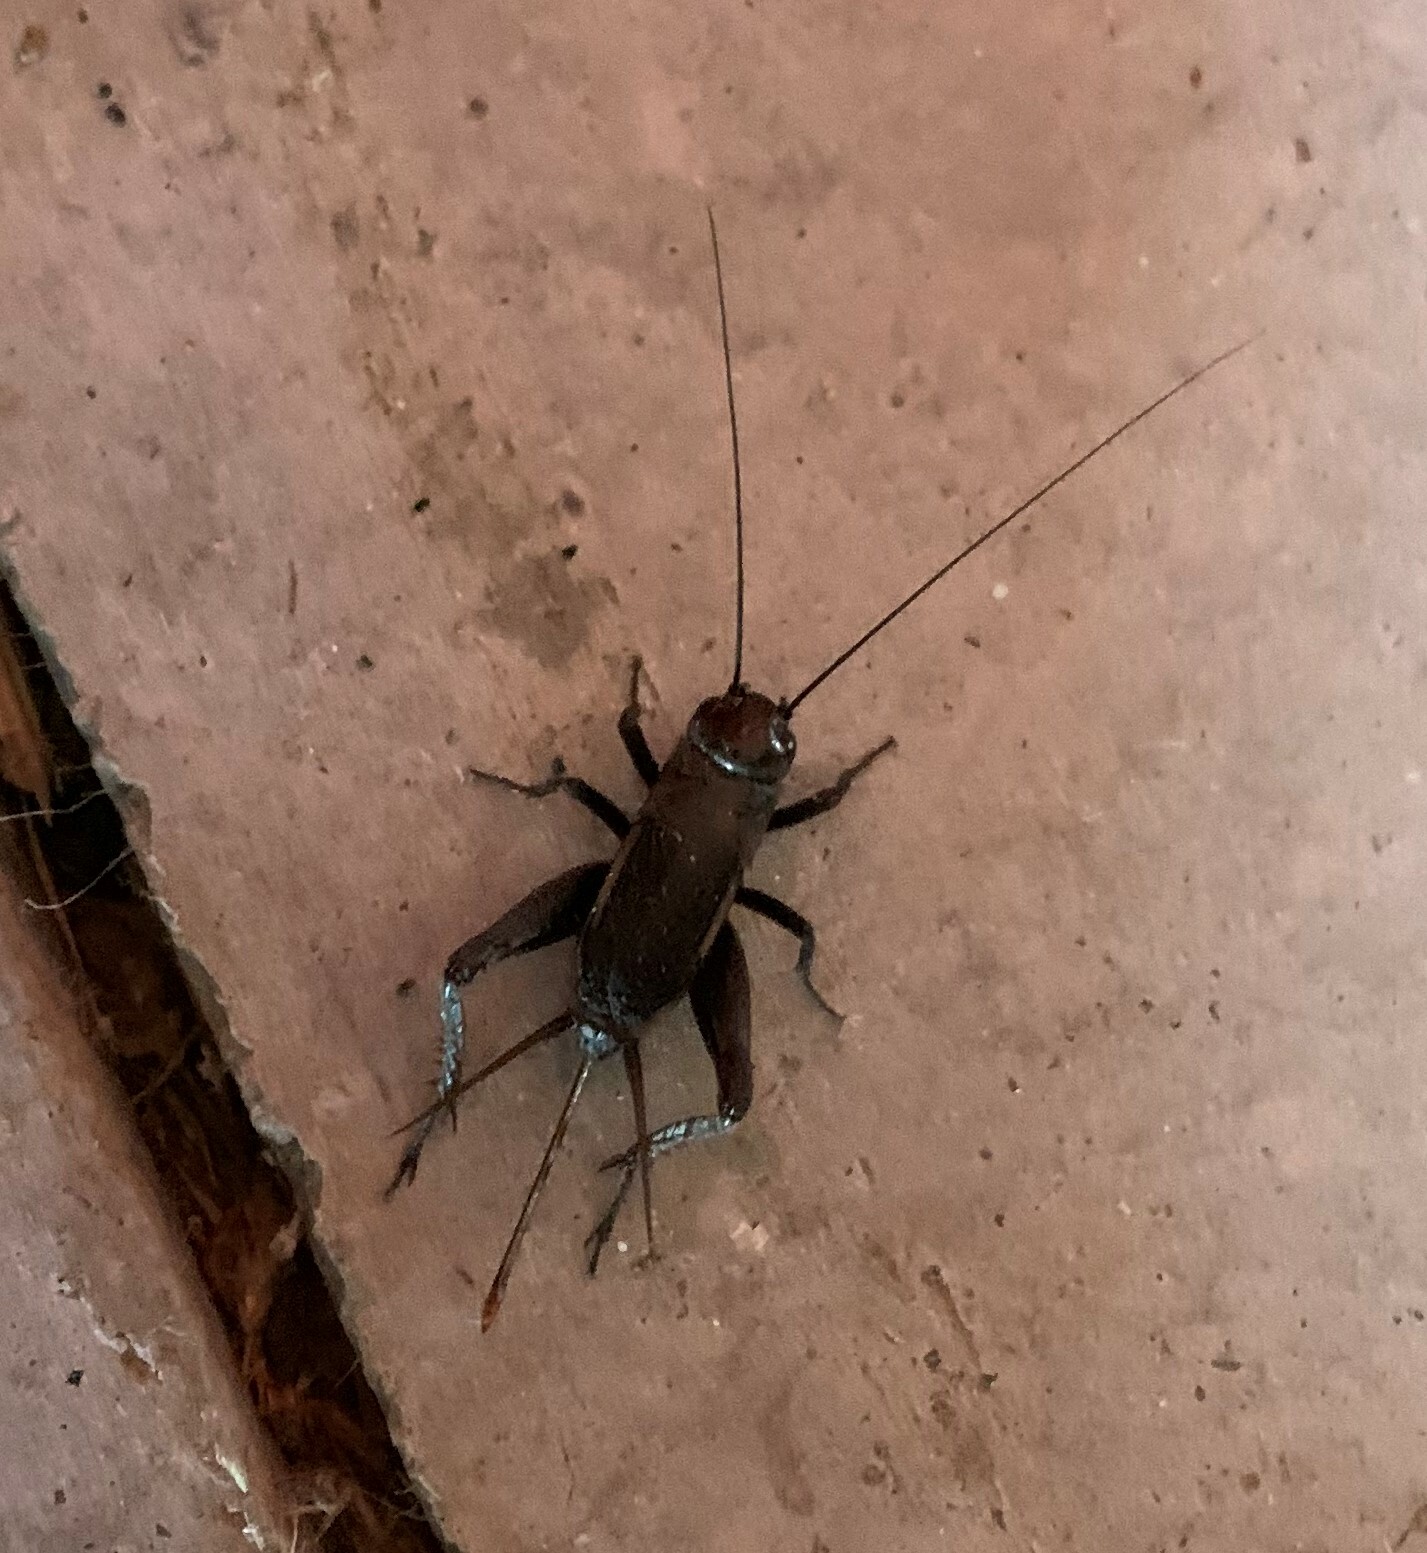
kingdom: Animalia
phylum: Arthropoda
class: Insecta
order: Orthoptera
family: Gryllidae
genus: Gryllus
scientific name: Gryllus pennsylvanicus
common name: Fall field cricket
